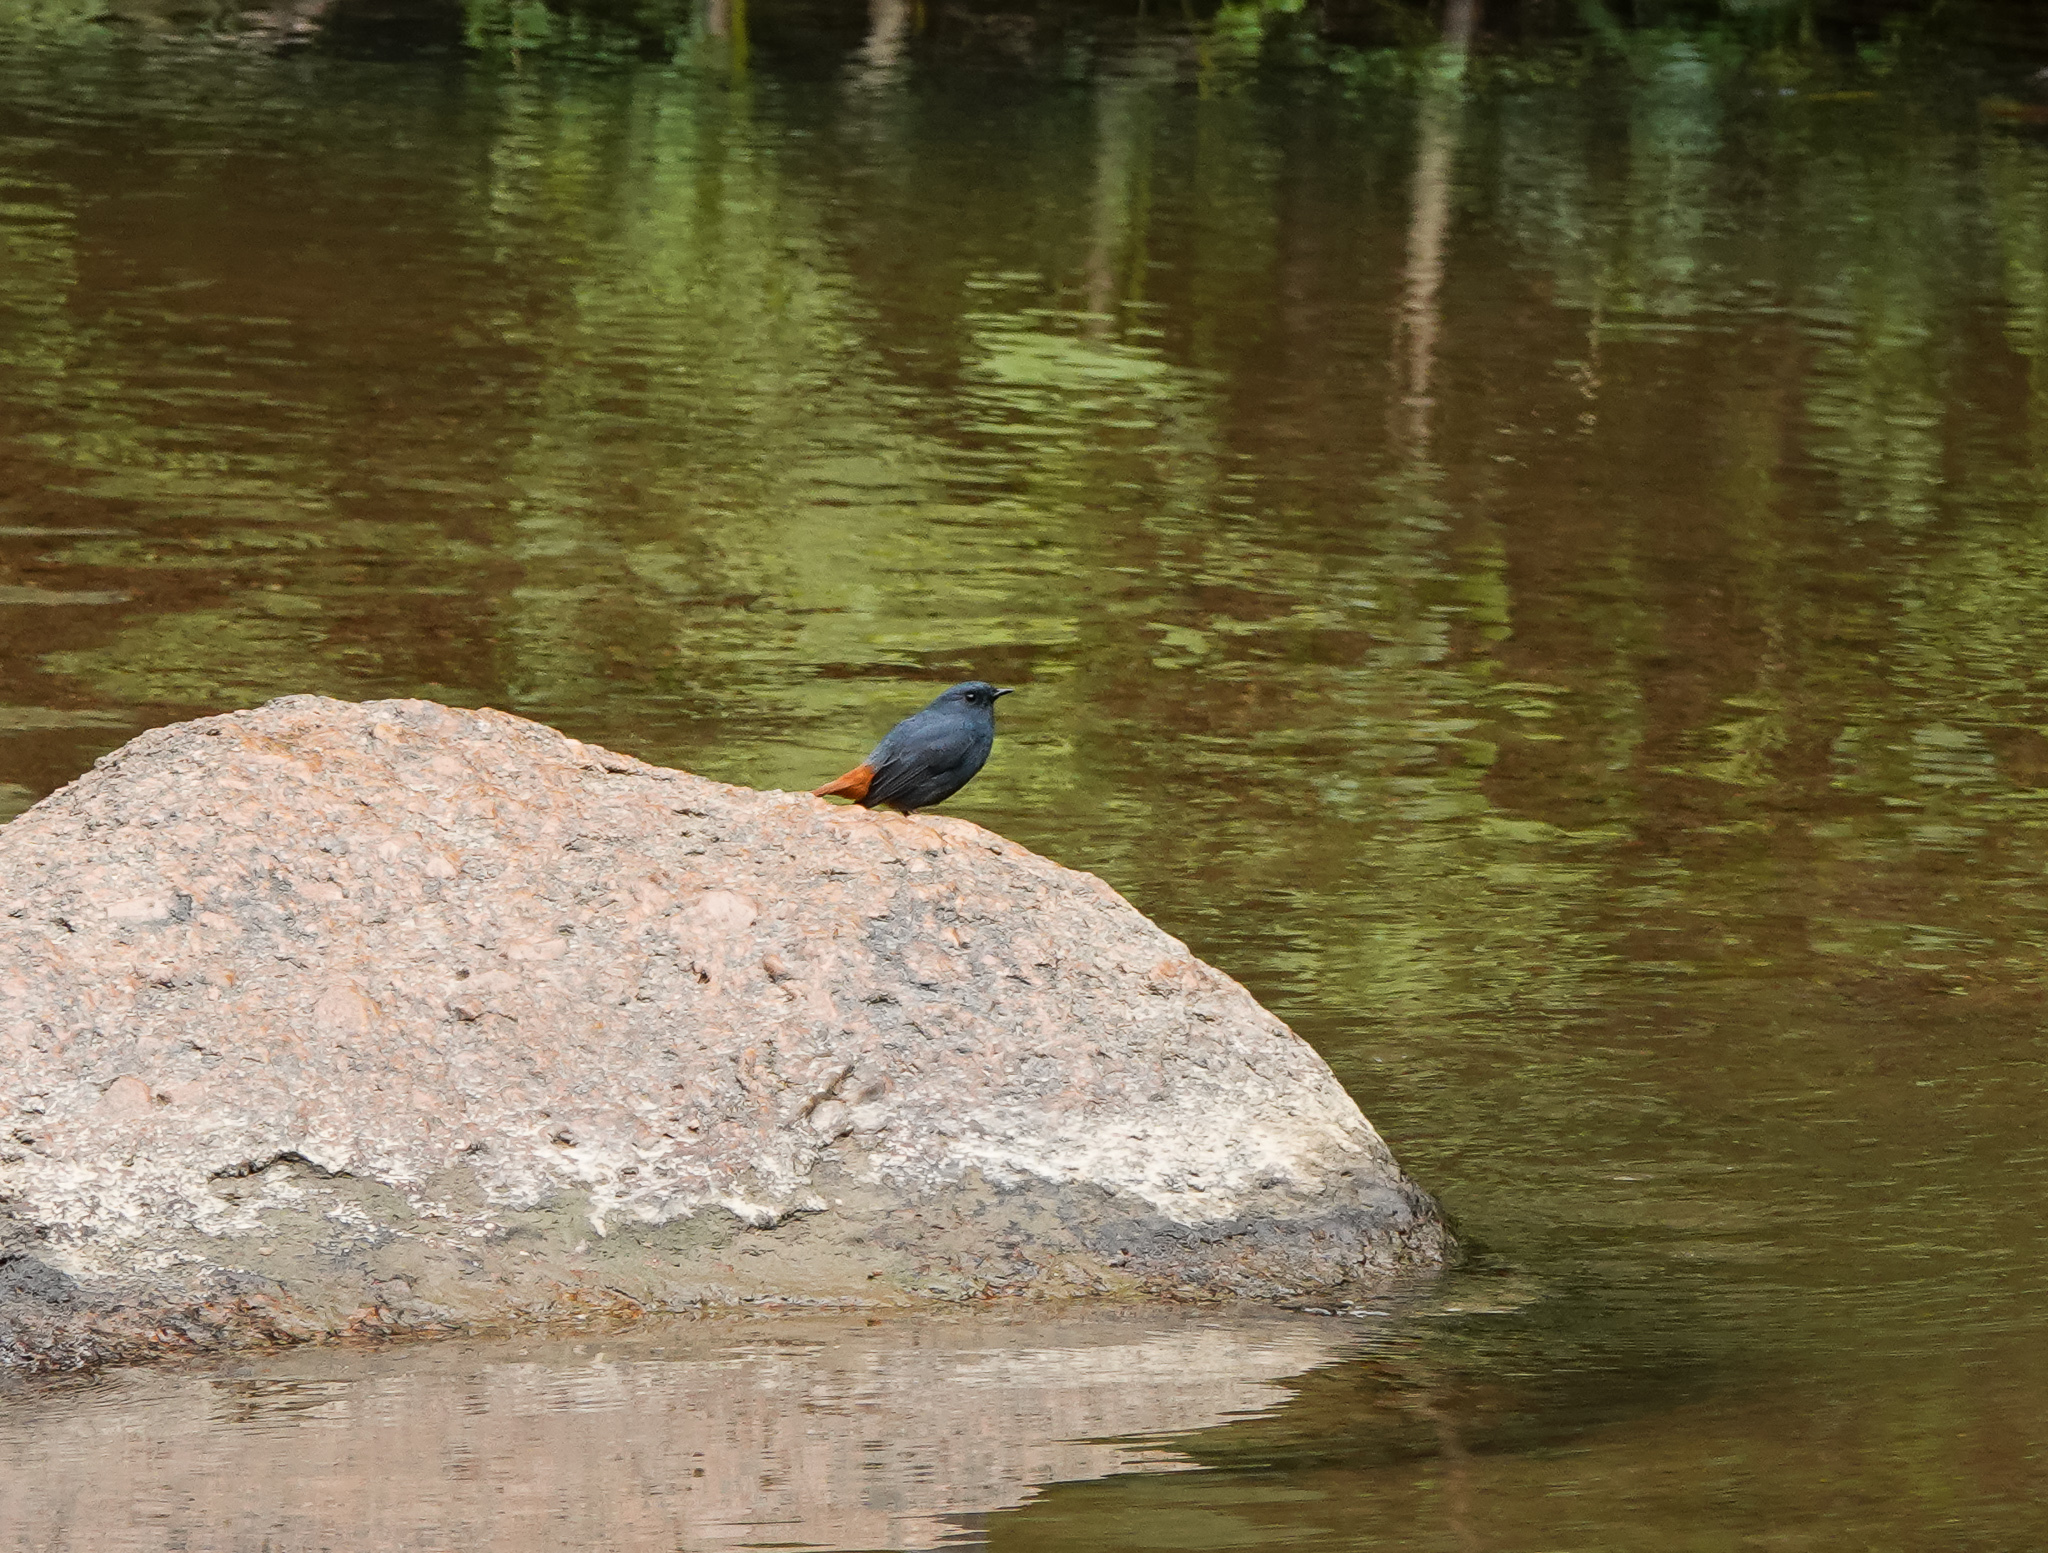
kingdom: Animalia
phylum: Chordata
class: Aves
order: Passeriformes
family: Muscicapidae
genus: Phoenicurus
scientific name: Phoenicurus fuliginosus
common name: Plumbeous water redstart
